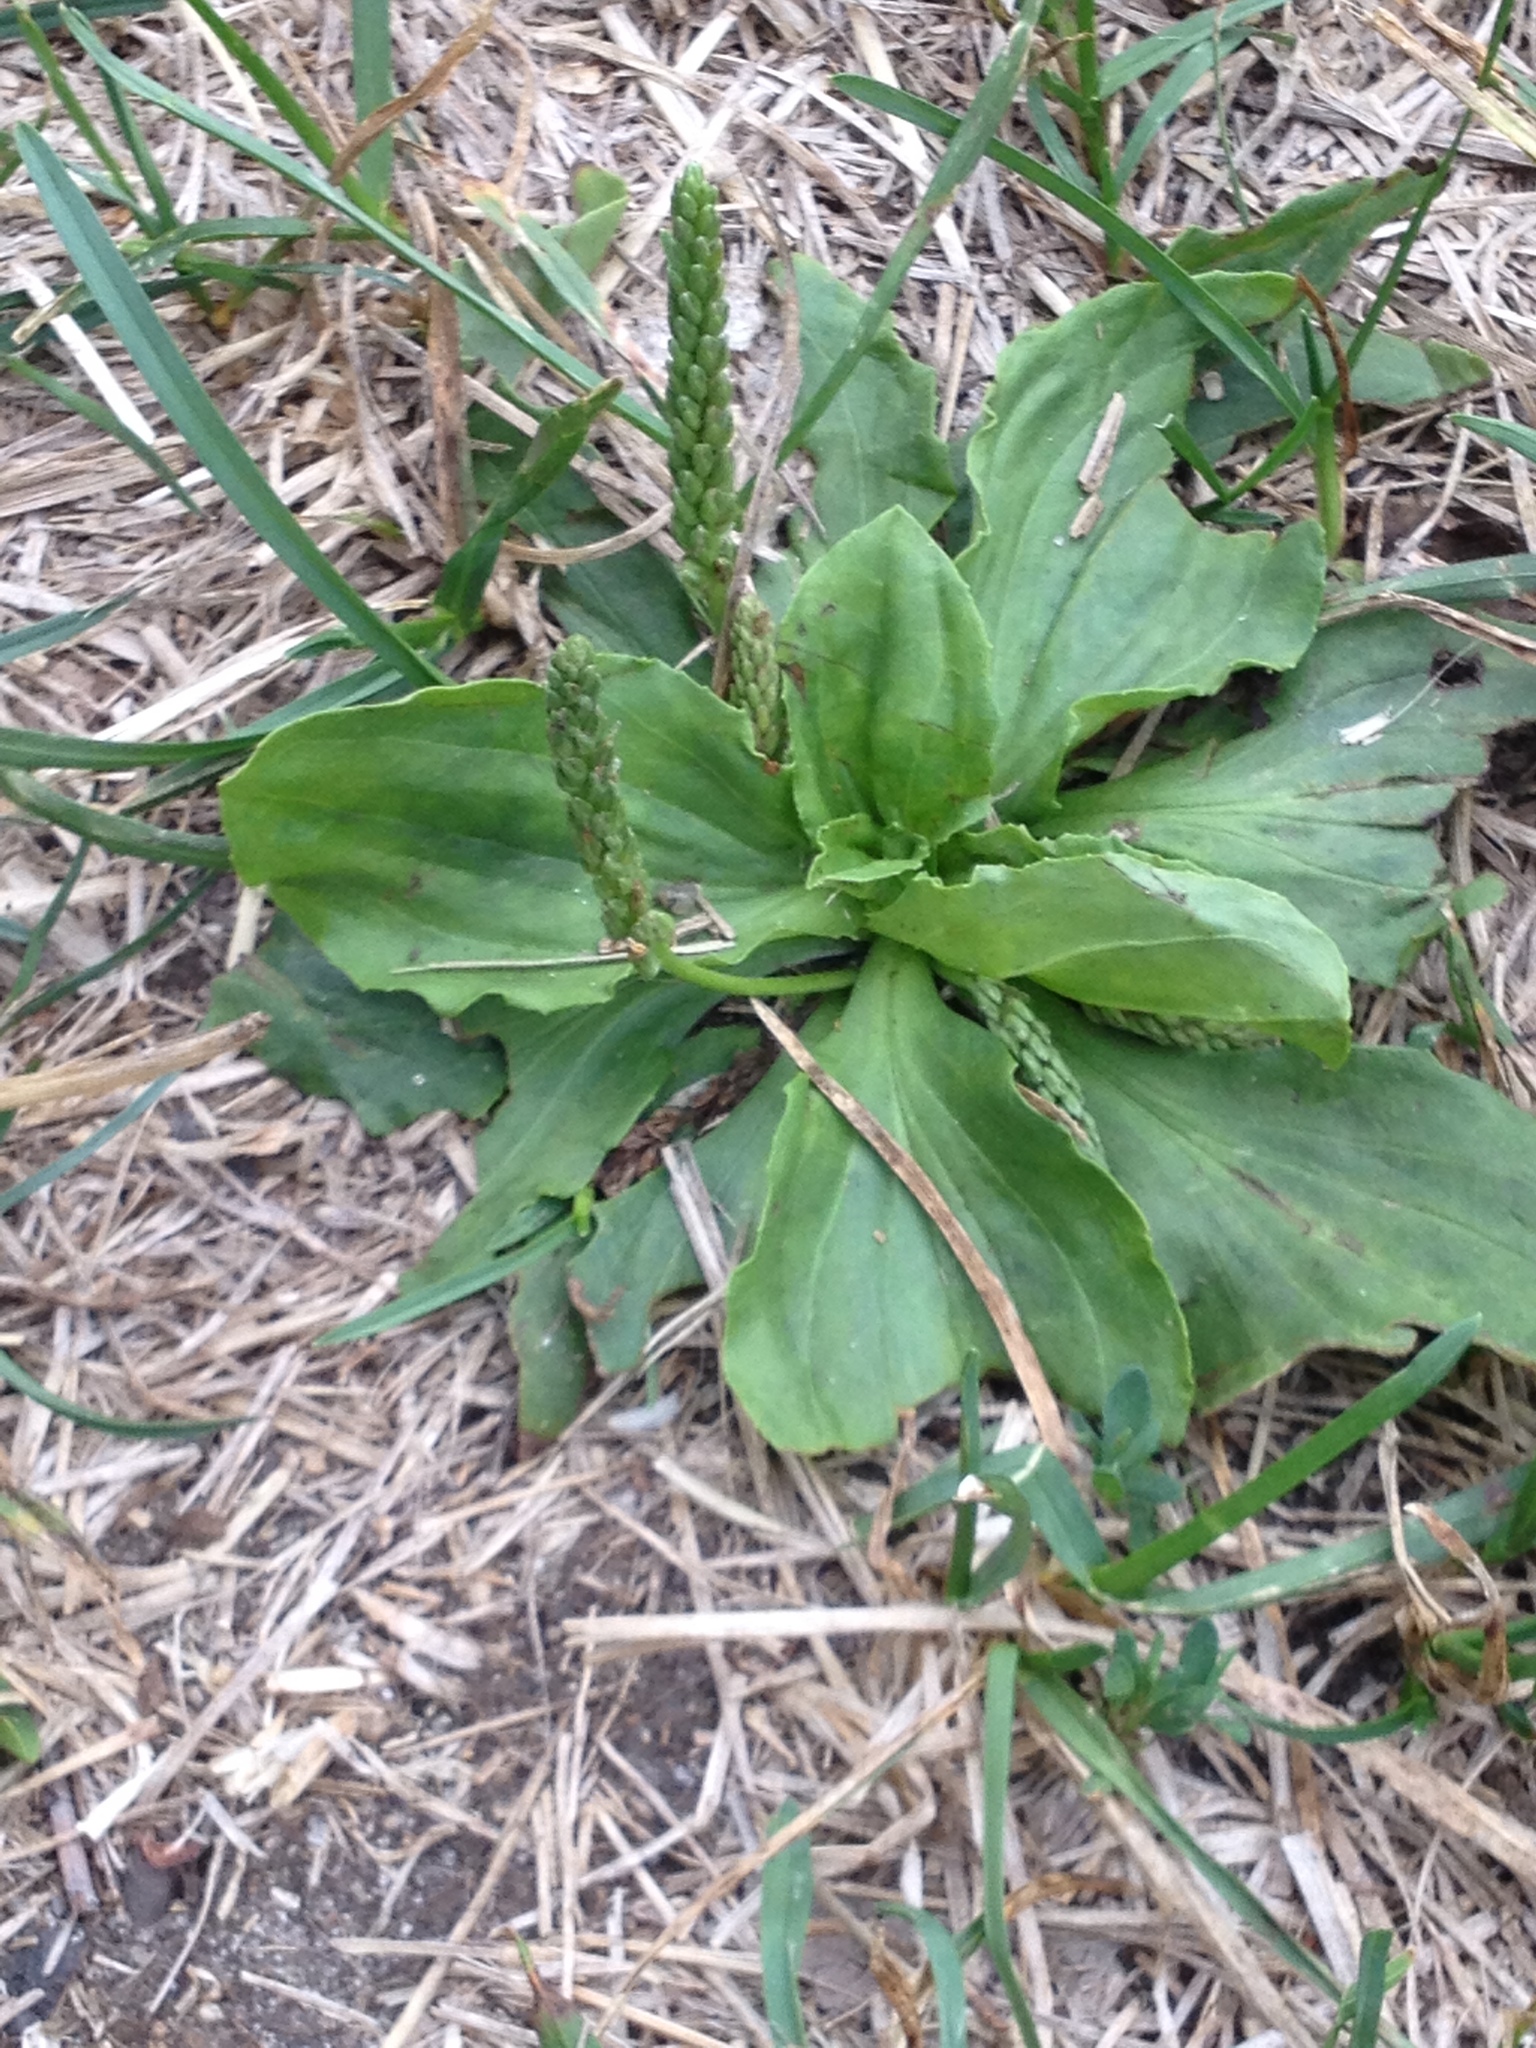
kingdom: Plantae
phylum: Tracheophyta
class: Magnoliopsida
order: Lamiales
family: Plantaginaceae
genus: Plantago
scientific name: Plantago major
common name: Common plantain
